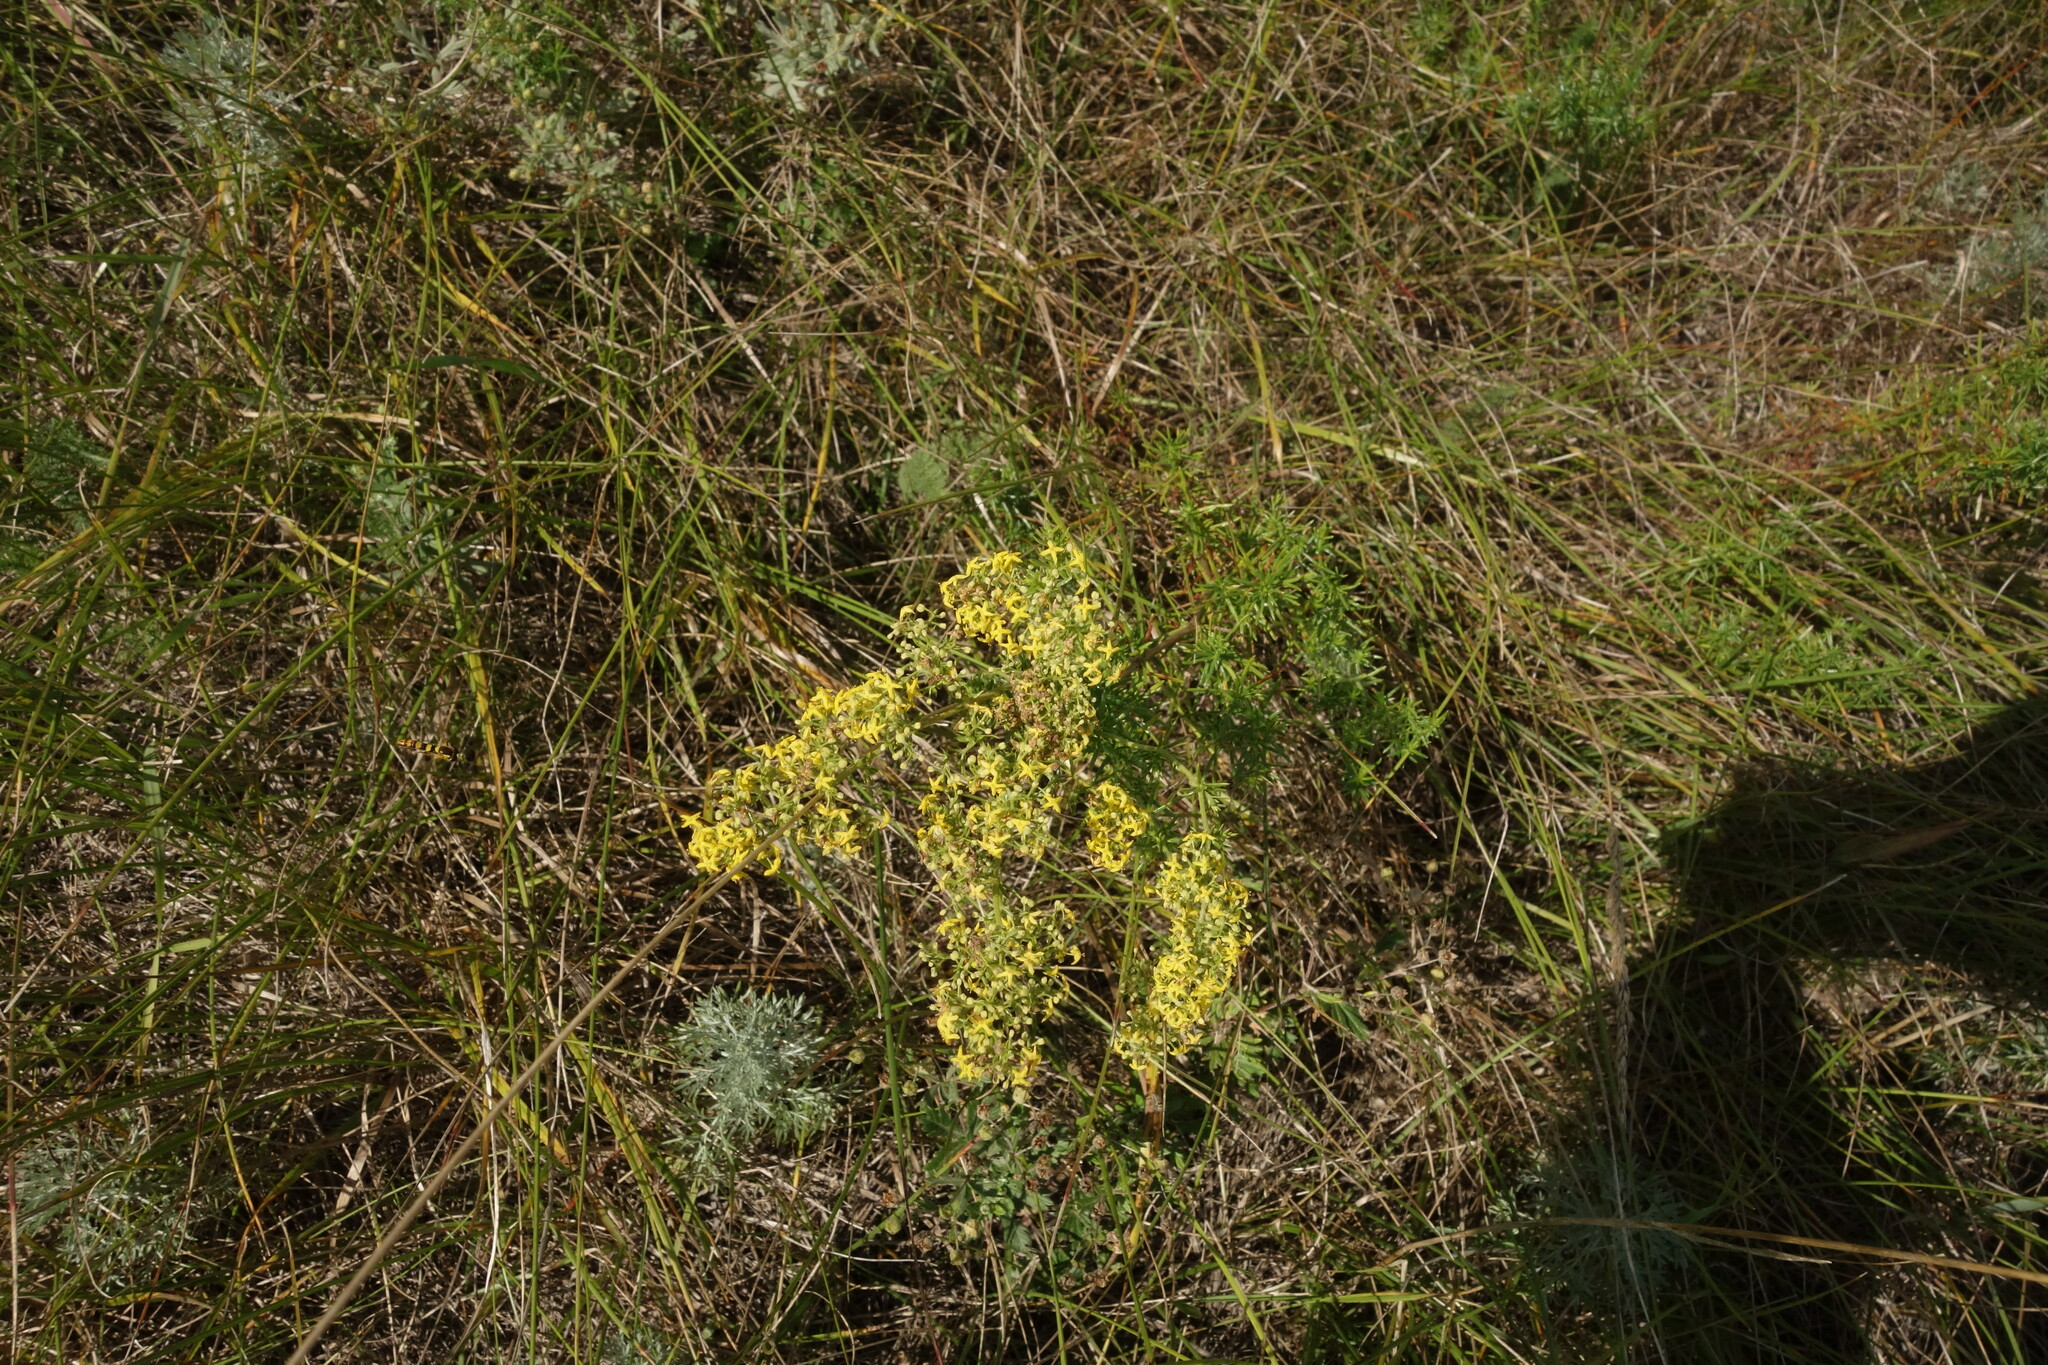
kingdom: Plantae
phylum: Tracheophyta
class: Magnoliopsida
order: Gentianales
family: Rubiaceae
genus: Galium
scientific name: Galium verum
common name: Lady's bedstraw
